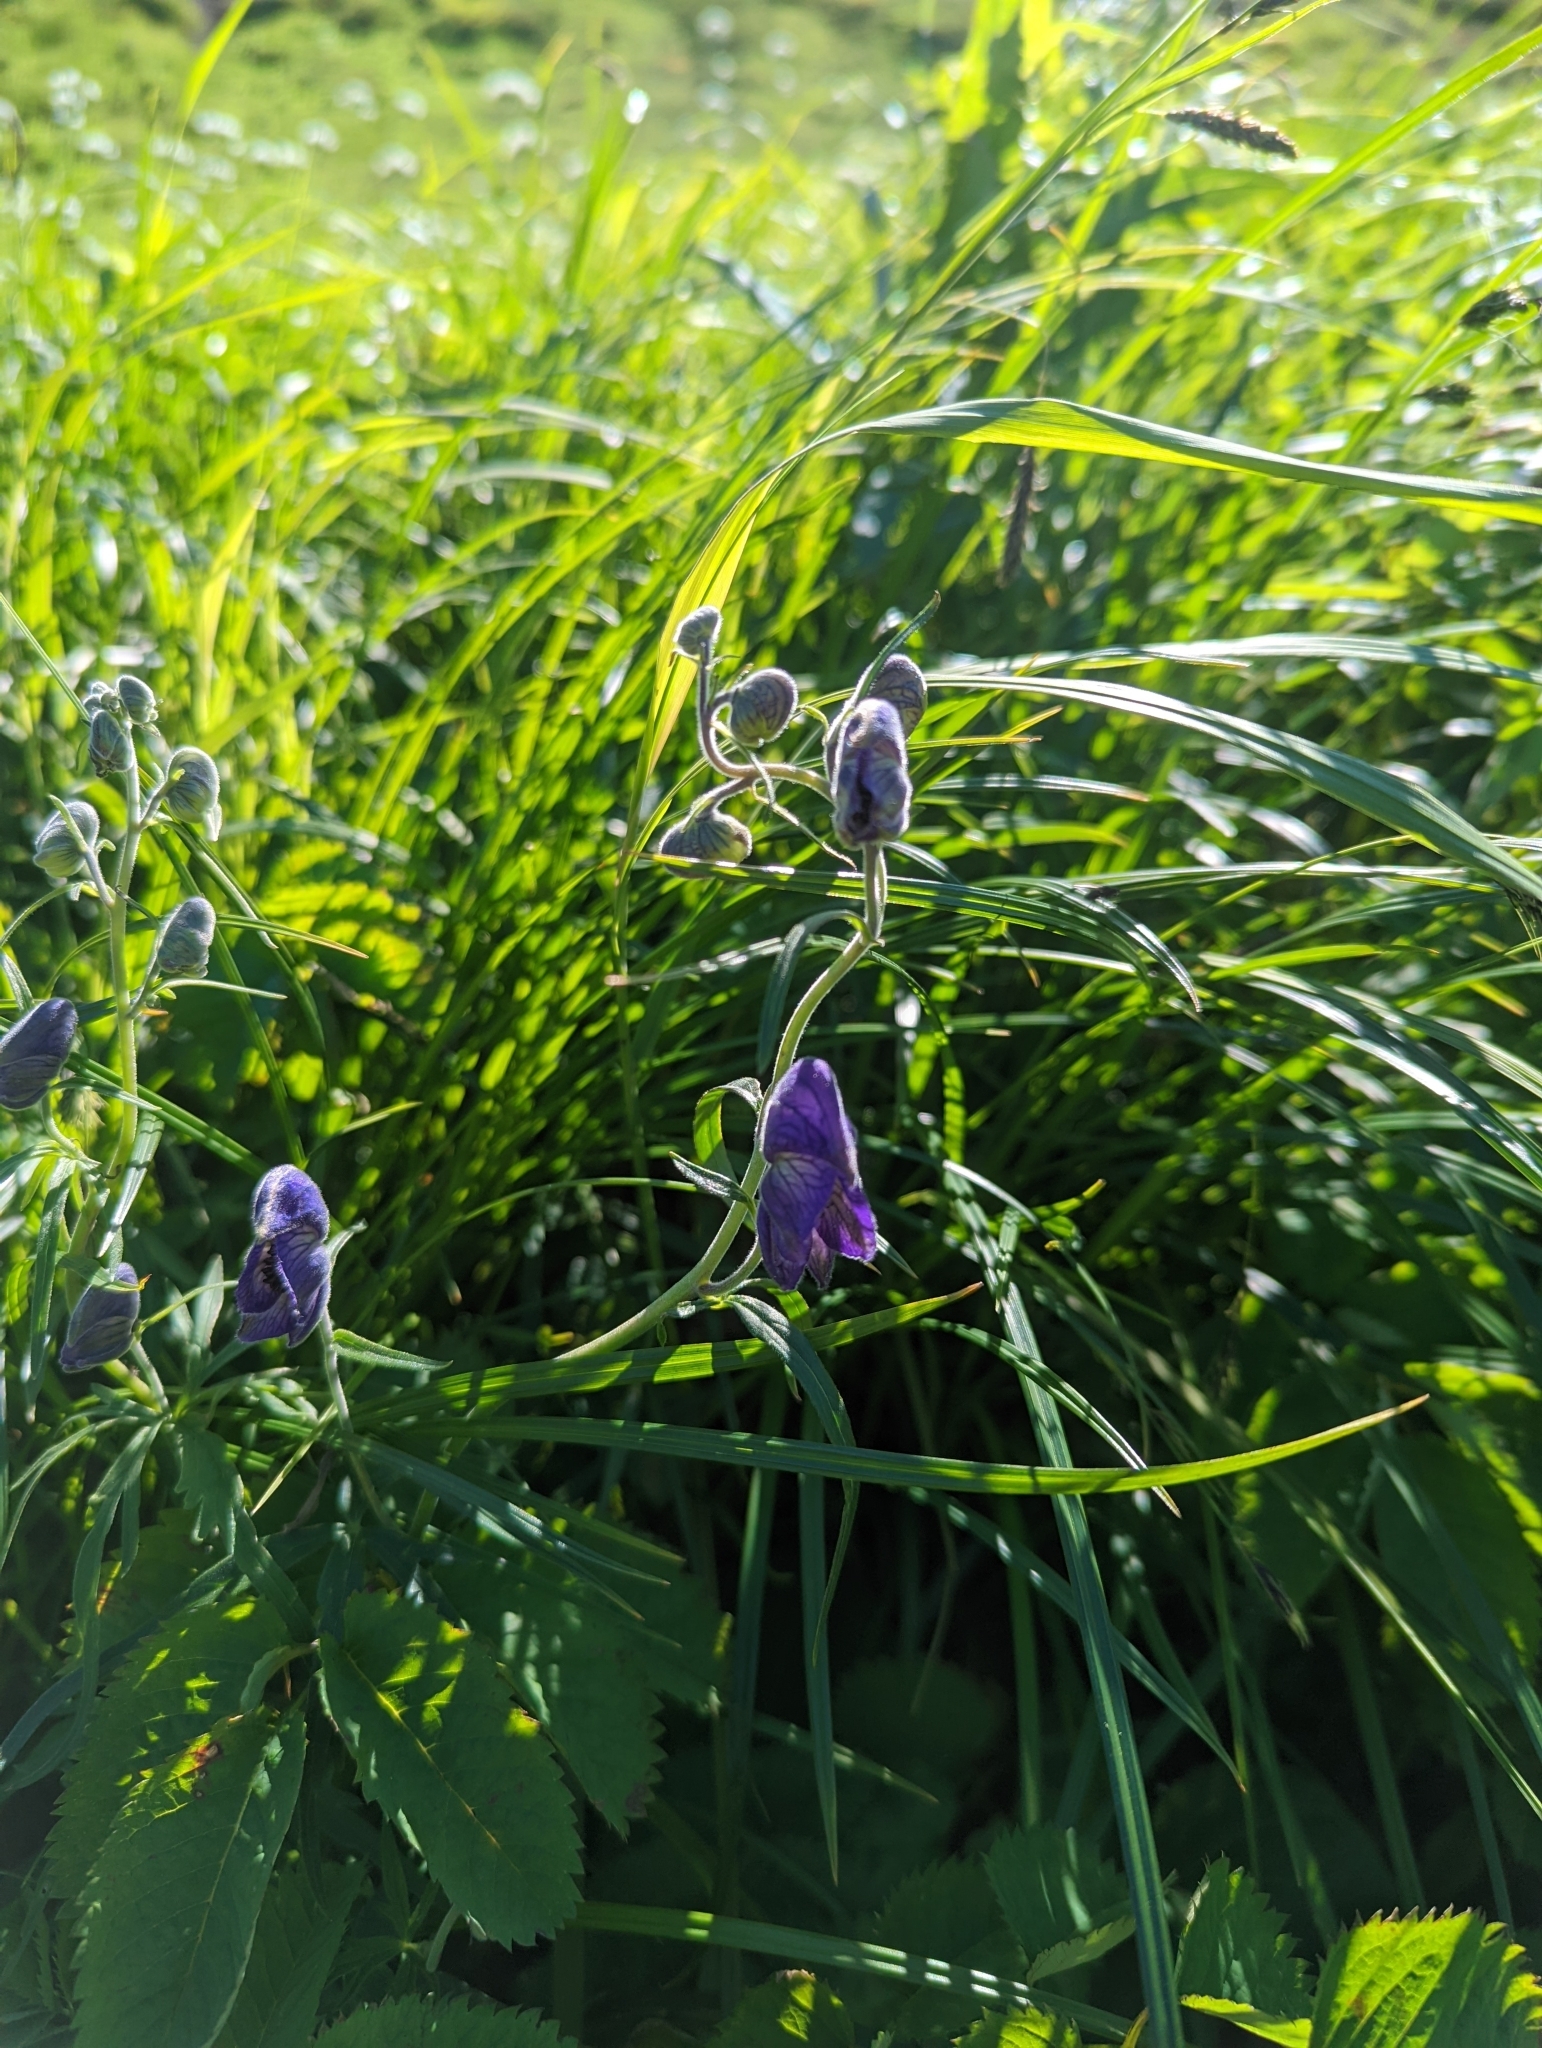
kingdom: Plantae
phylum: Tracheophyta
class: Magnoliopsida
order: Ranunculales
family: Ranunculaceae
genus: Aconitum
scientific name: Aconitum delphiniifolium
